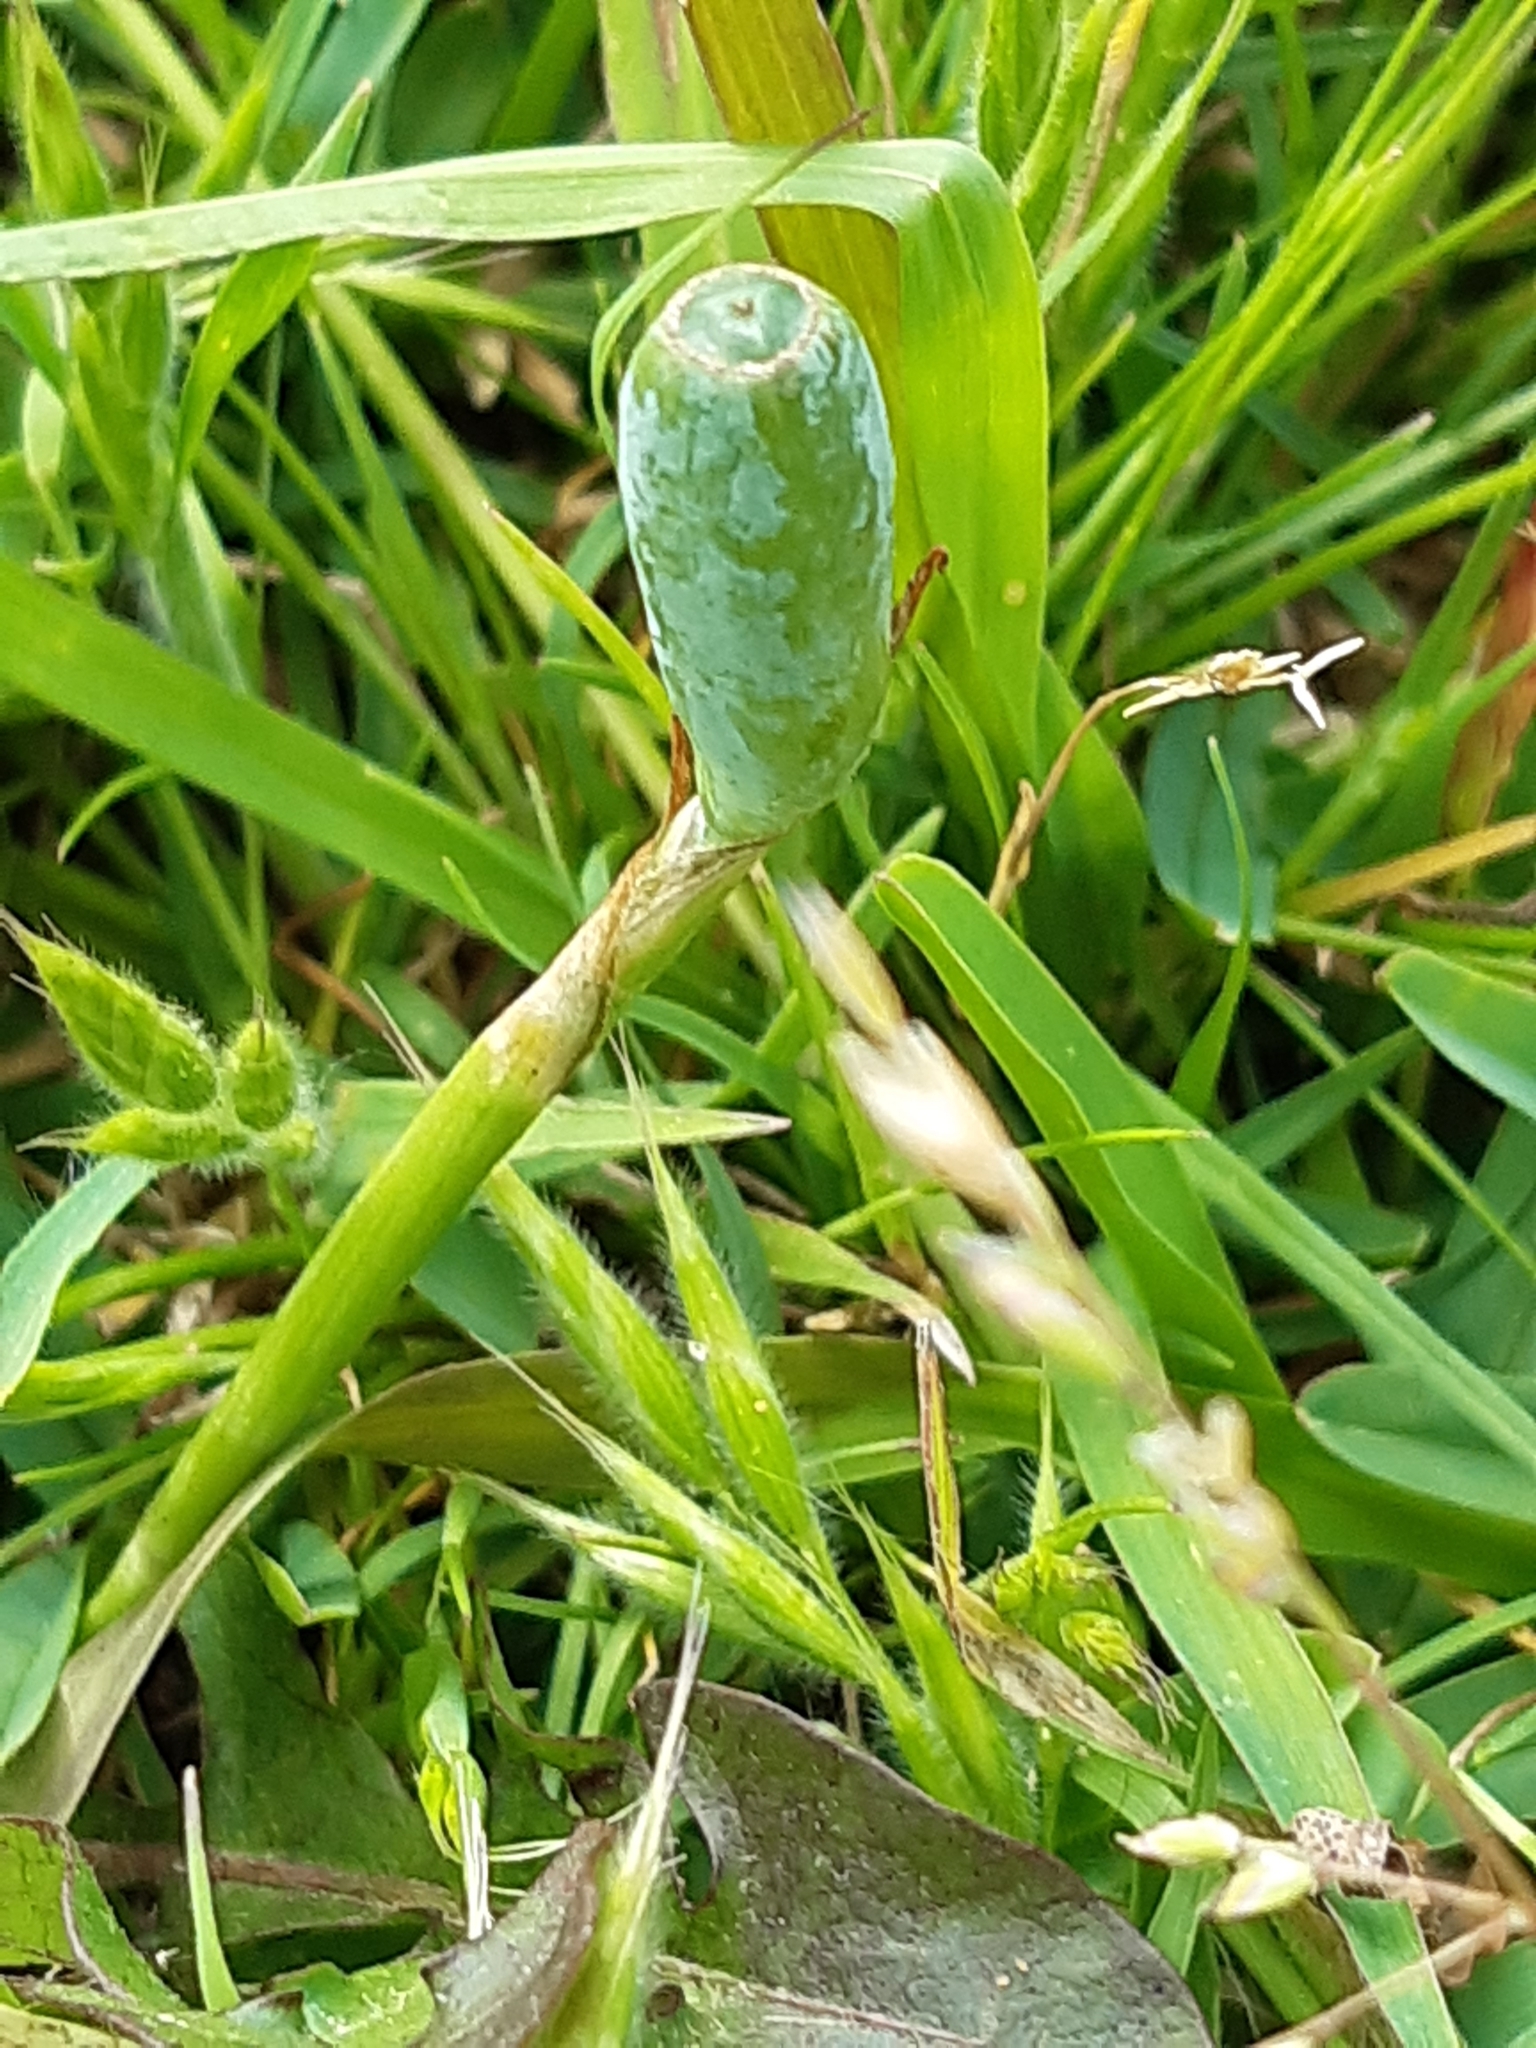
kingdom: Plantae
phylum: Tracheophyta
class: Liliopsida
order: Asparagales
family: Iridaceae
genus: Herbertia
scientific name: Herbertia lahue
